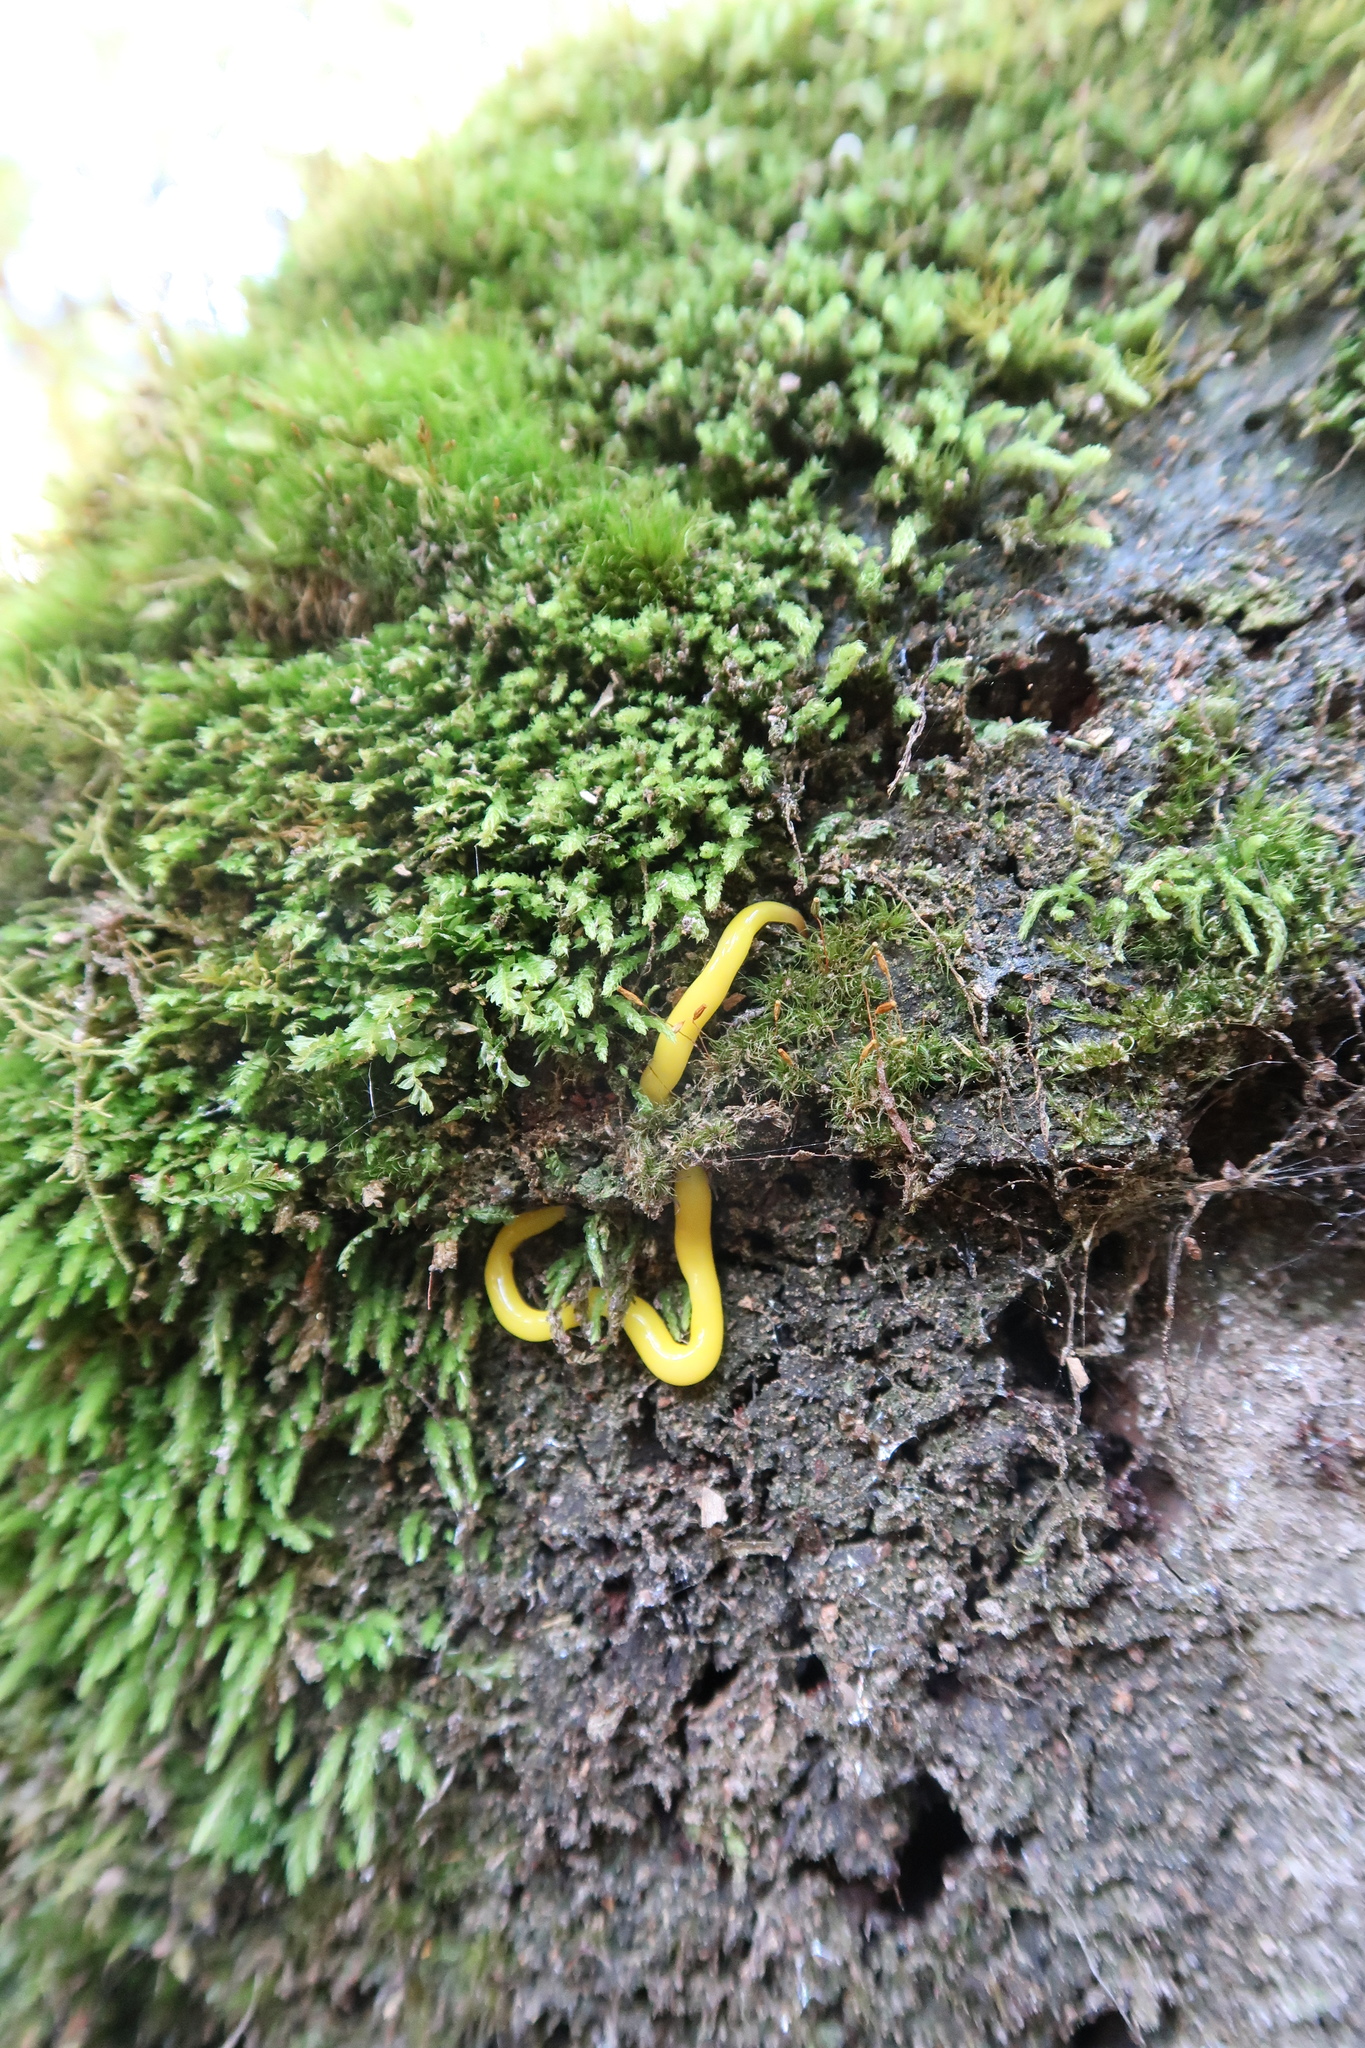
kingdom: Animalia
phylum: Platyhelminthes
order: Tricladida
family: Geoplanidae
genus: Fletchamia
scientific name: Fletchamia sugdeni
